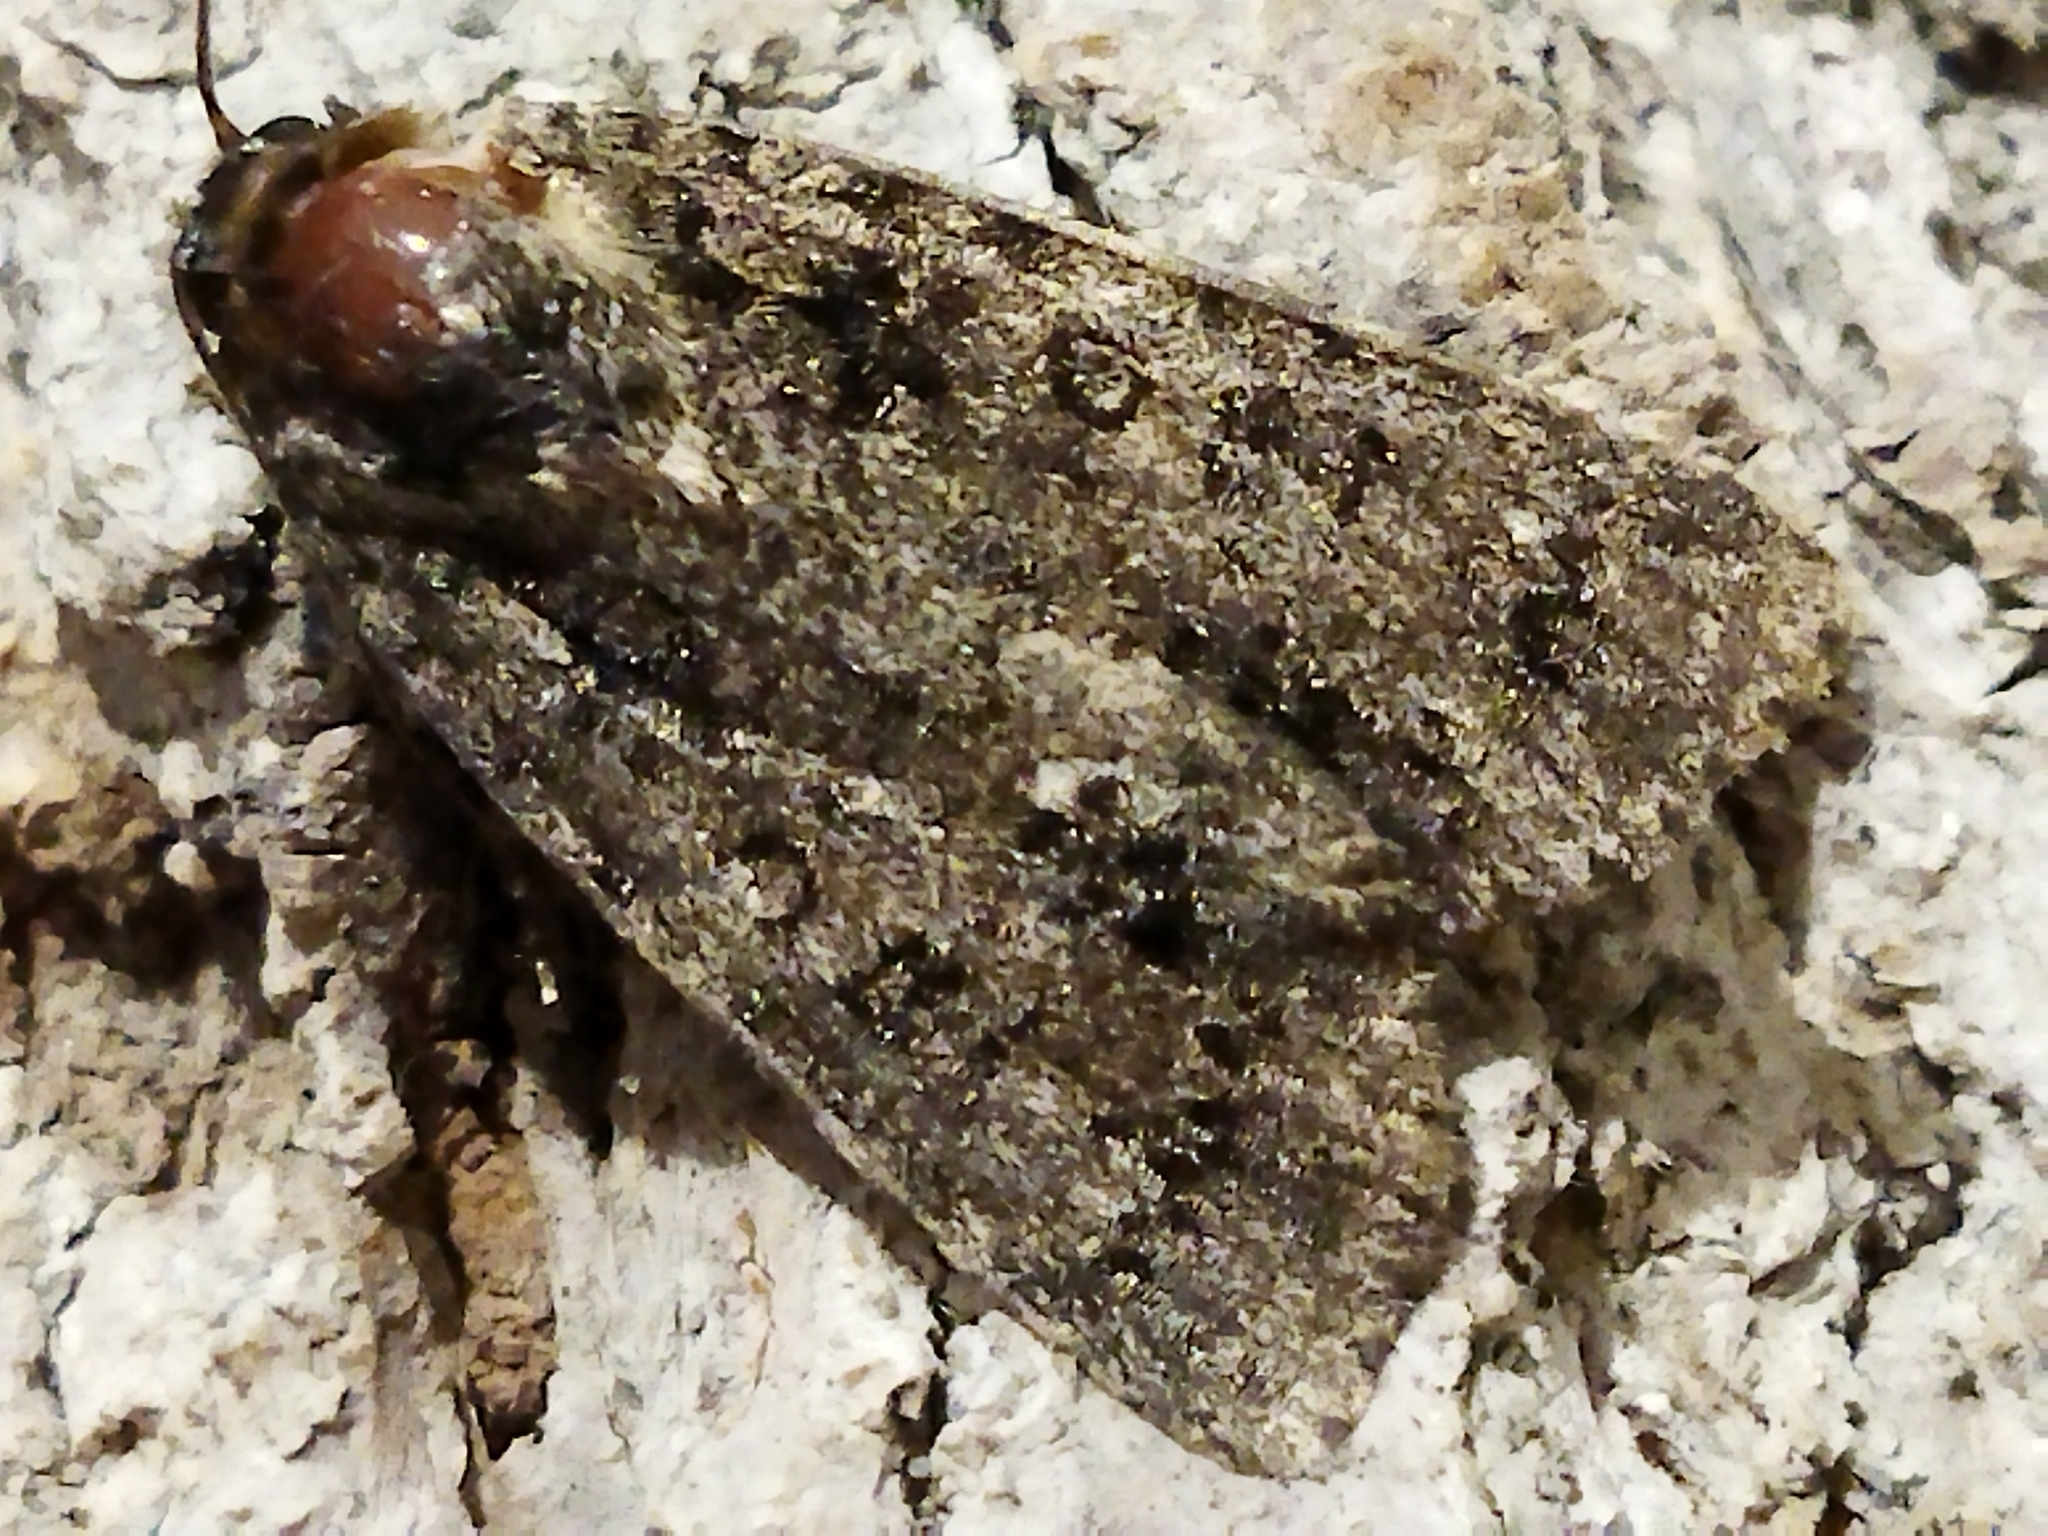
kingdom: Animalia
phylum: Arthropoda
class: Insecta
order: Lepidoptera
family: Noctuidae
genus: Acronicta
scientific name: Acronicta rumicis
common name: Knot grass
